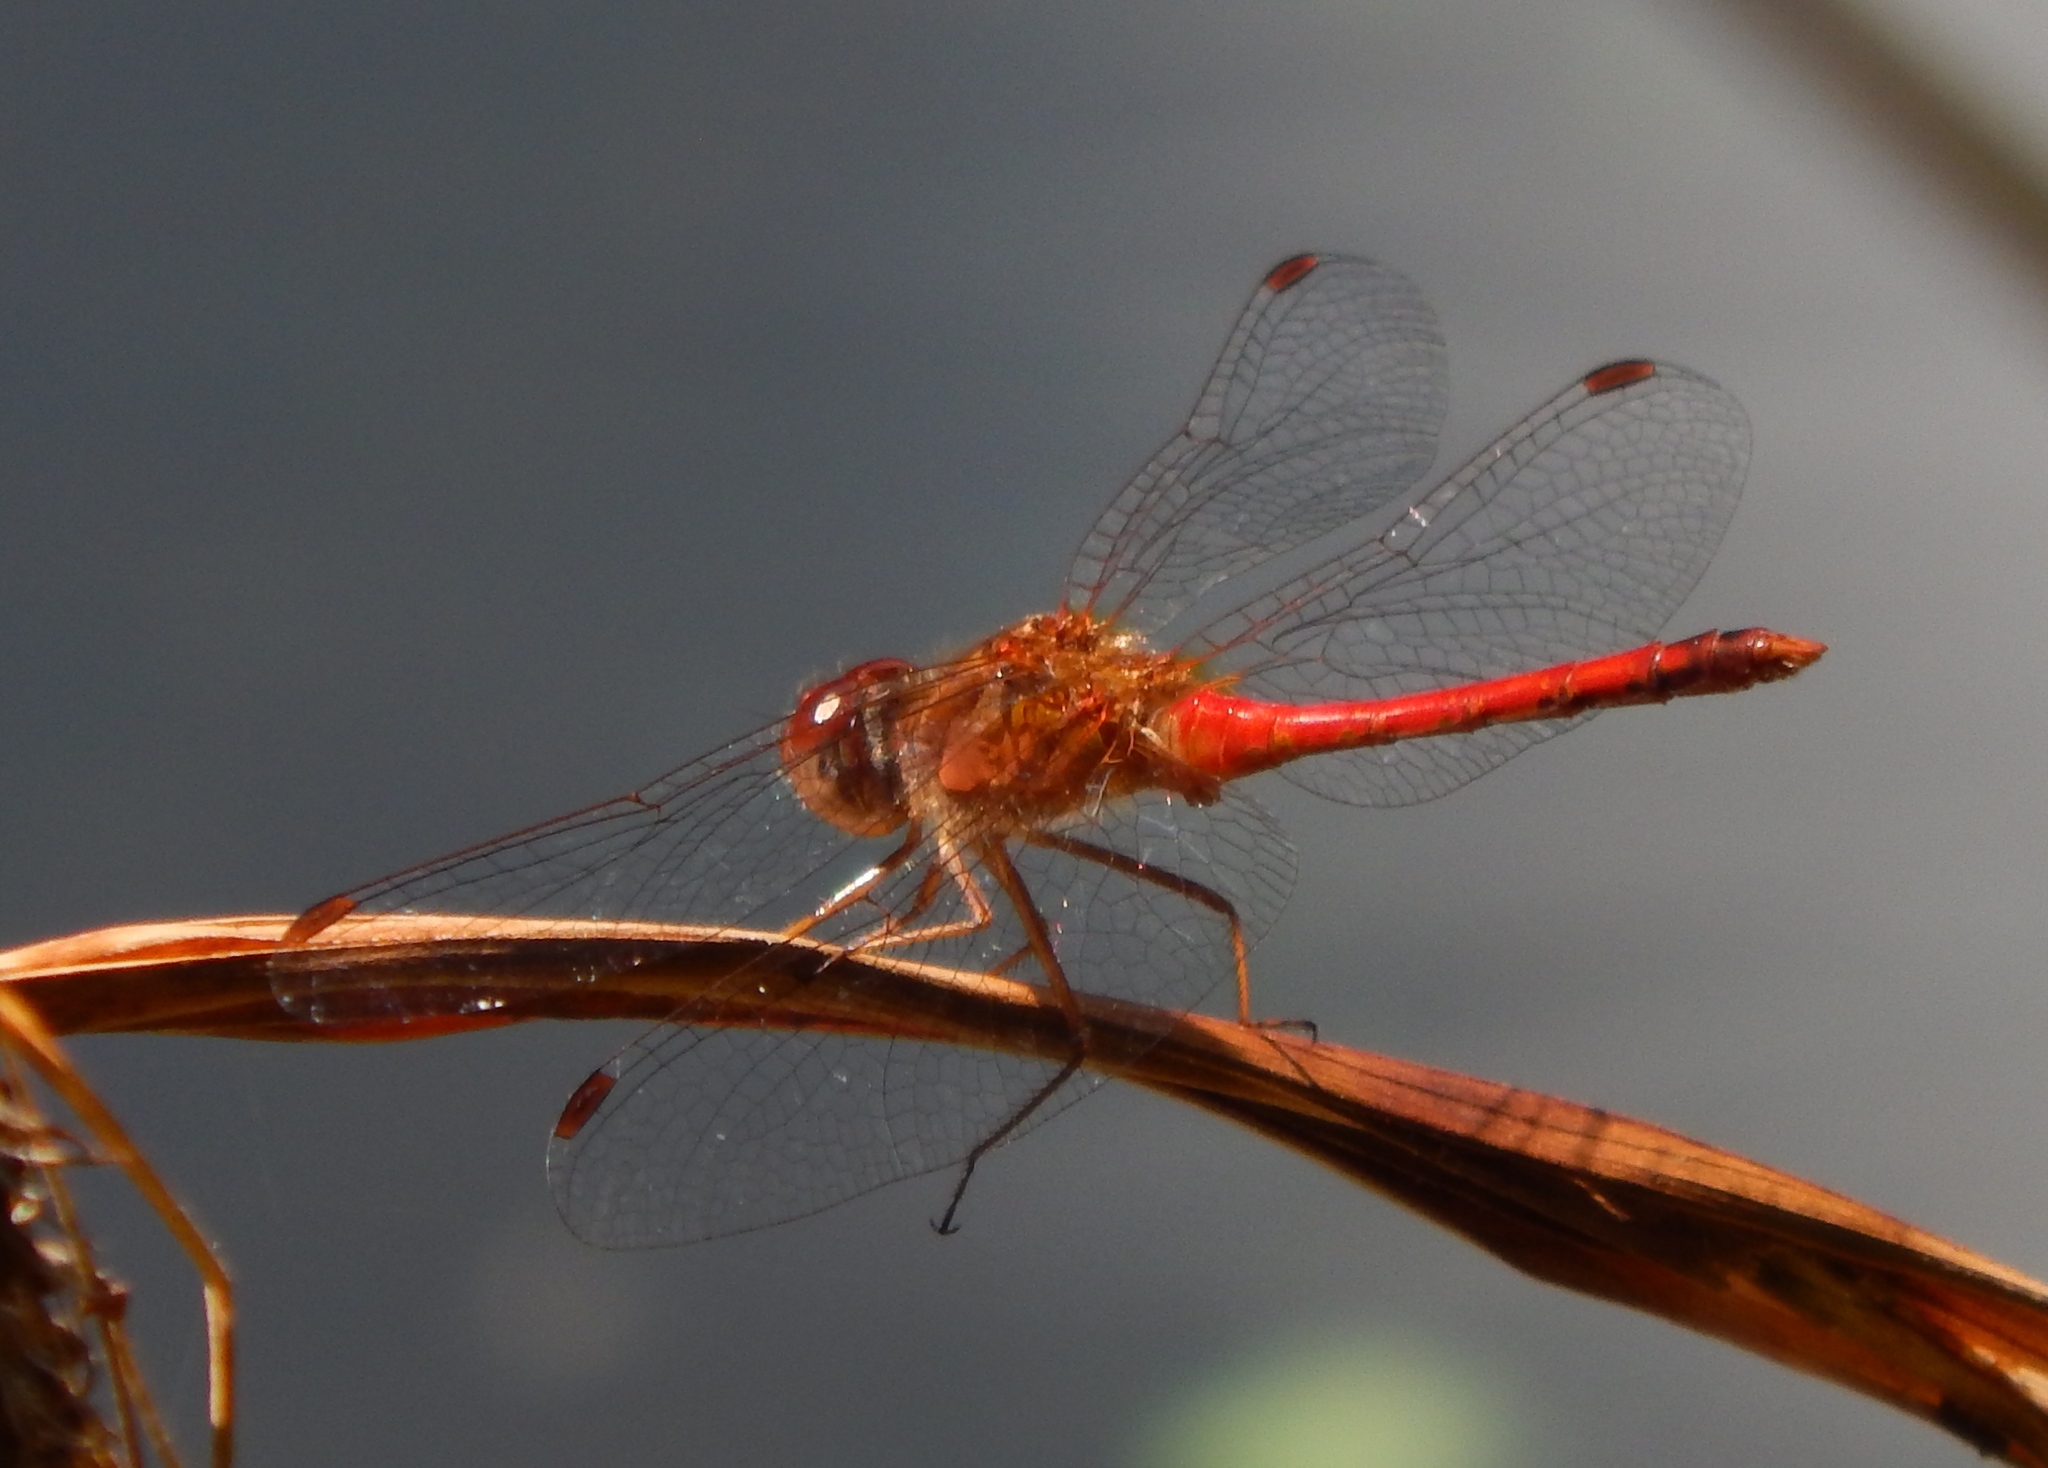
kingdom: Animalia
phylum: Arthropoda
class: Insecta
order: Odonata
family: Libellulidae
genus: Sympetrum
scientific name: Sympetrum vicinum
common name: Autumn meadowhawk
